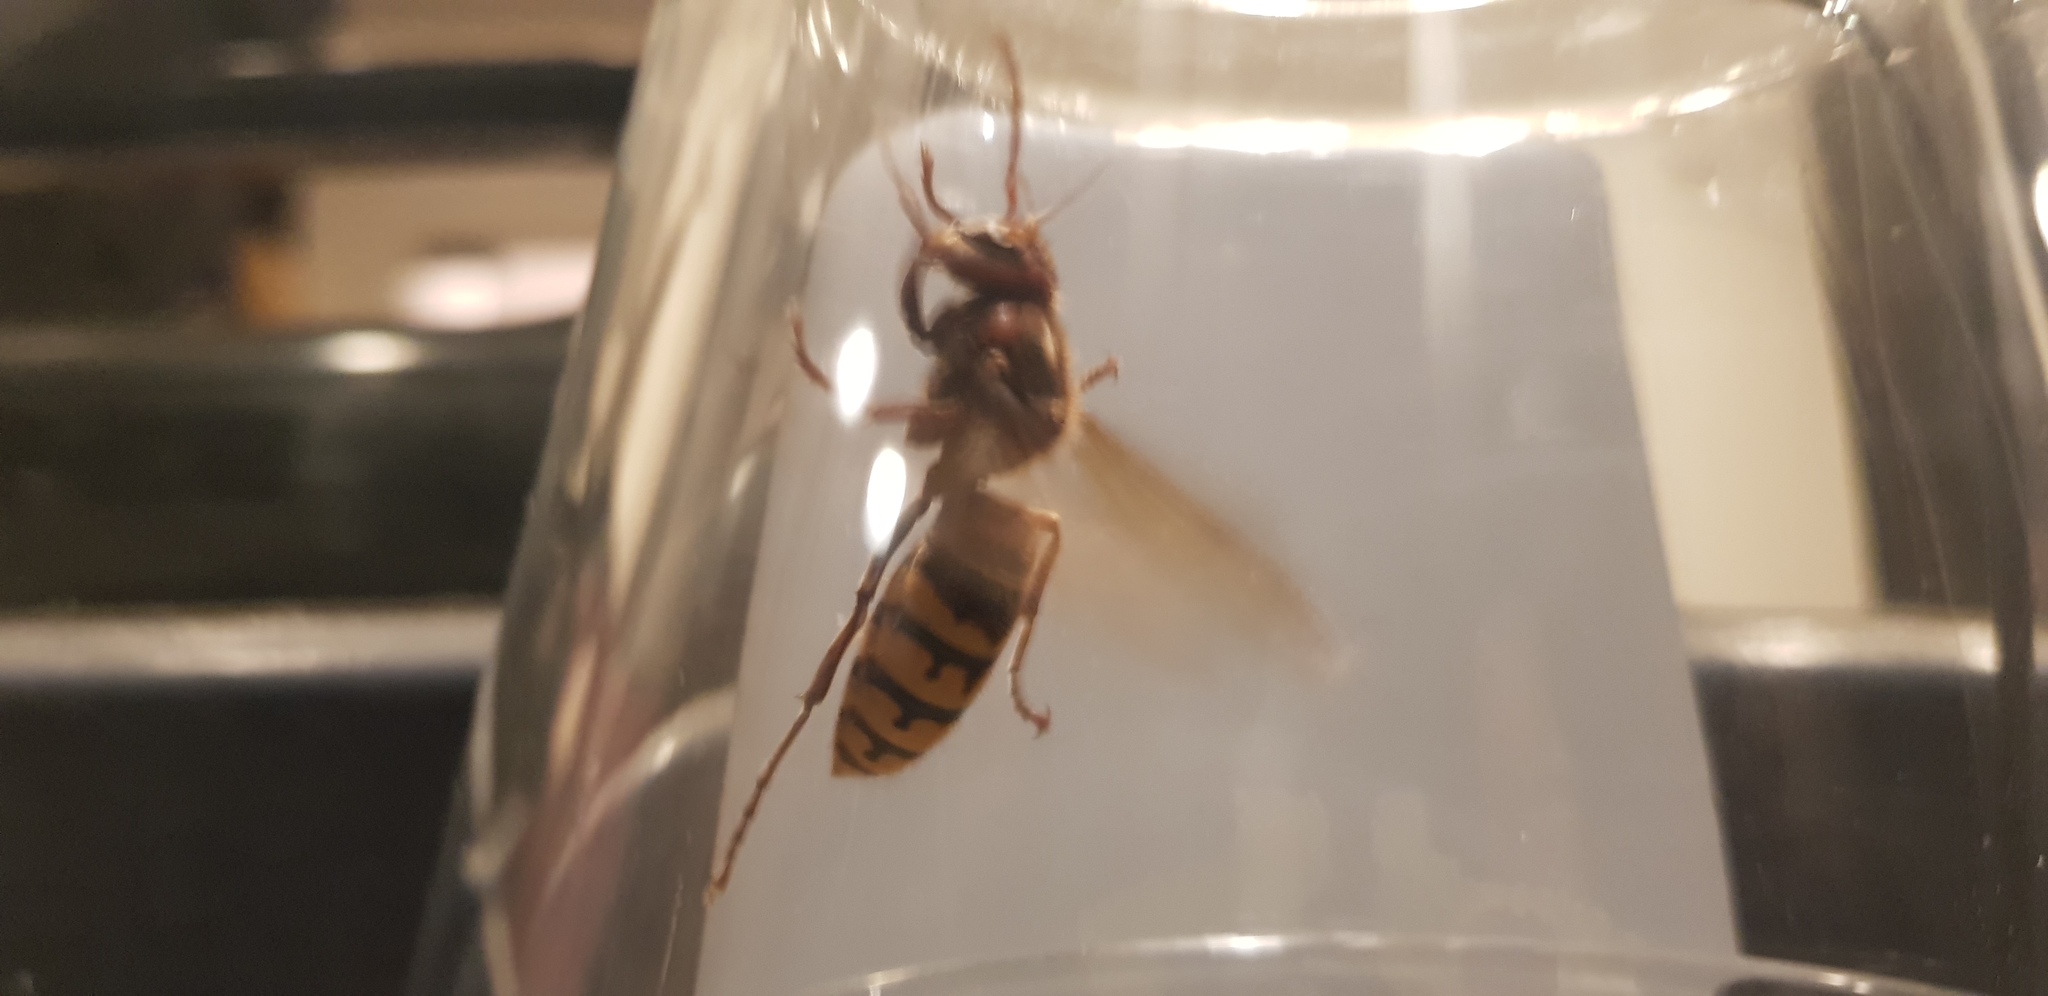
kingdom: Animalia
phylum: Arthropoda
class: Insecta
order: Hymenoptera
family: Vespidae
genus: Vespa
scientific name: Vespa crabro
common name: Hornet
